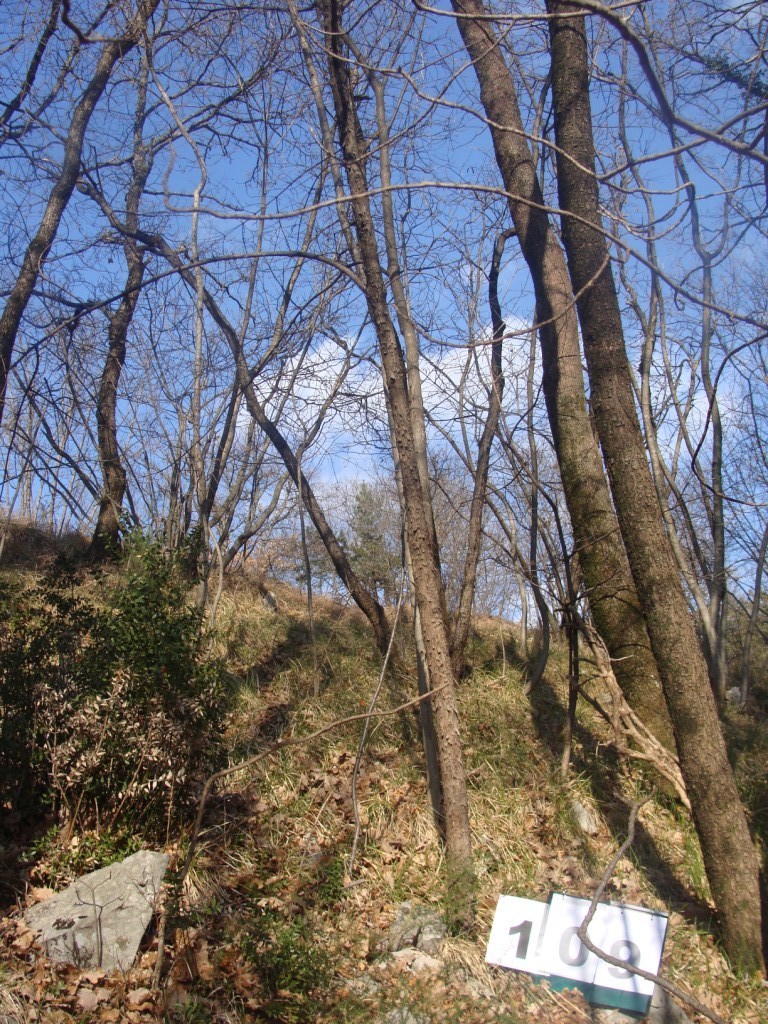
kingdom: Plantae
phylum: Tracheophyta
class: Magnoliopsida
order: Cornales
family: Cornaceae
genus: Cornus
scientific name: Cornus mas
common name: Cornelian-cherry
